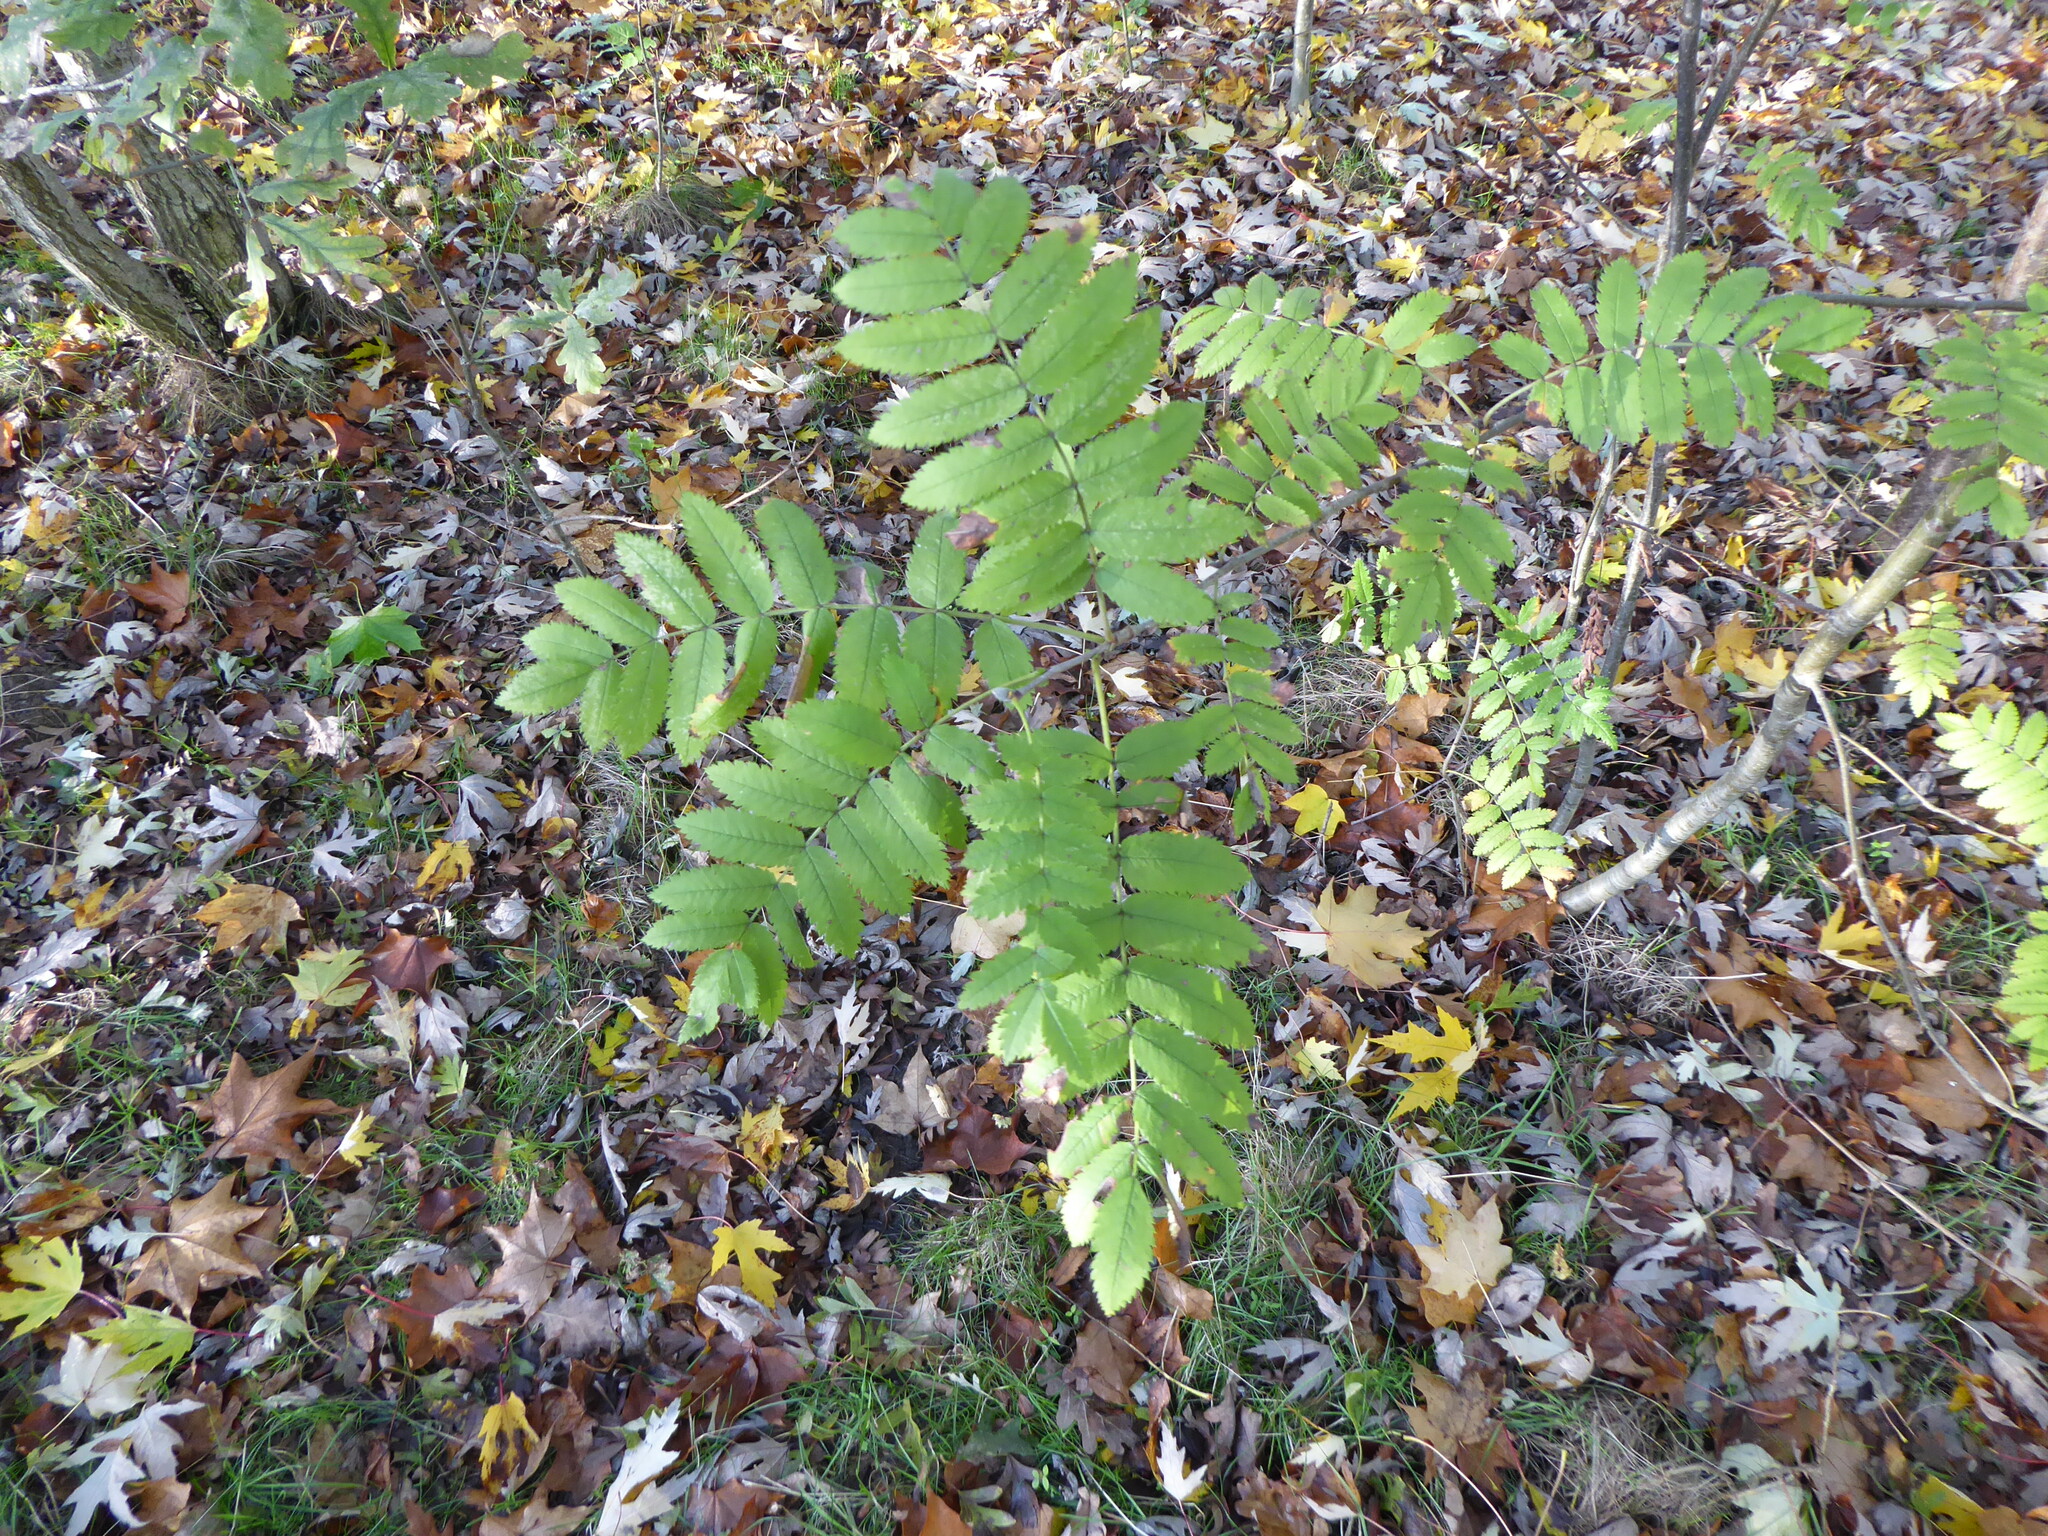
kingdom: Plantae
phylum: Tracheophyta
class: Magnoliopsida
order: Rosales
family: Rosaceae
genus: Sorbus
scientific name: Sorbus aucuparia
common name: Rowan
